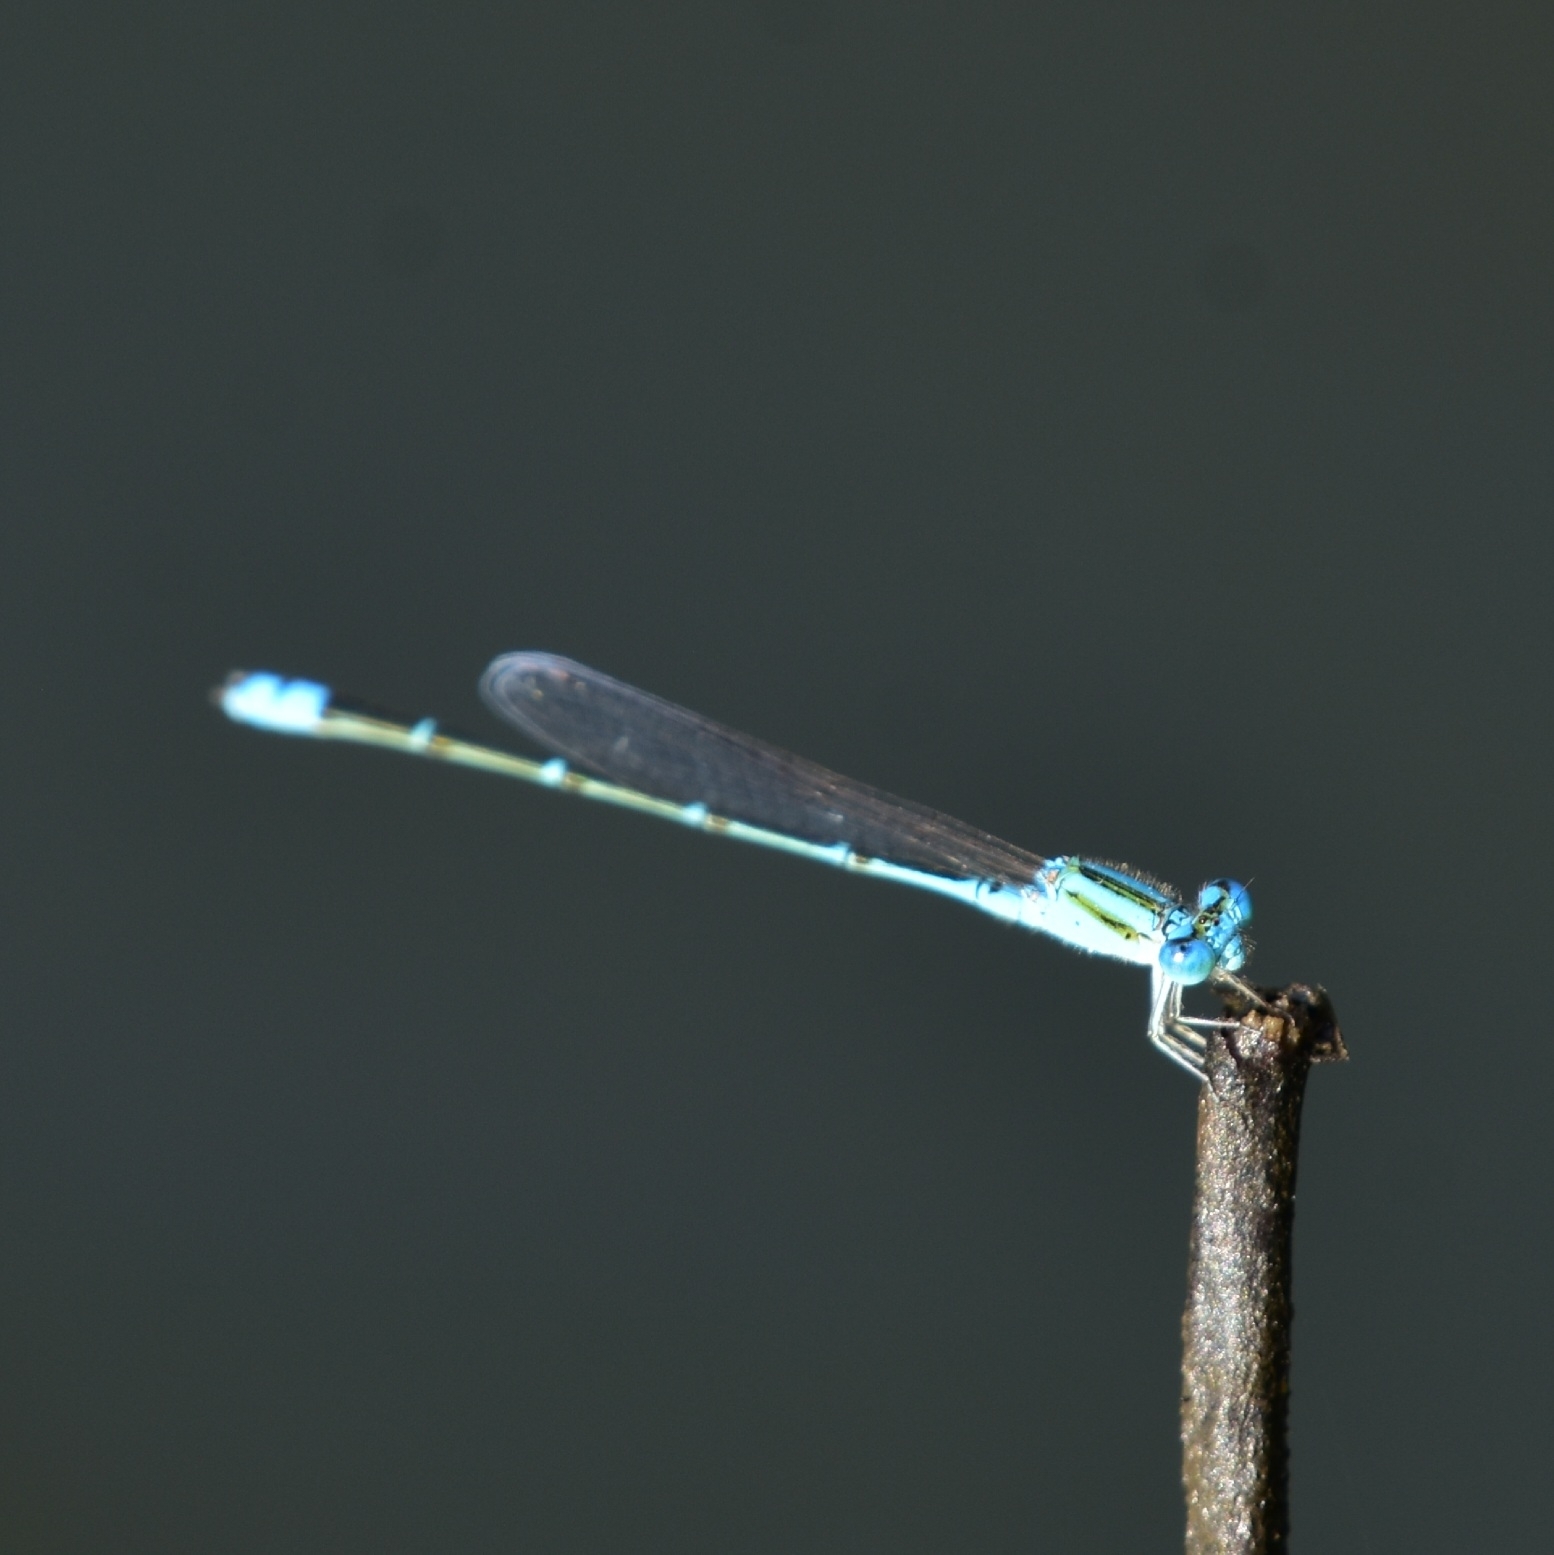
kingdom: Animalia
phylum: Arthropoda
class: Insecta
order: Odonata
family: Coenagrionidae
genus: Pseudagrion
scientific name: Pseudagrion microcephalum
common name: Blue riverdamsel
